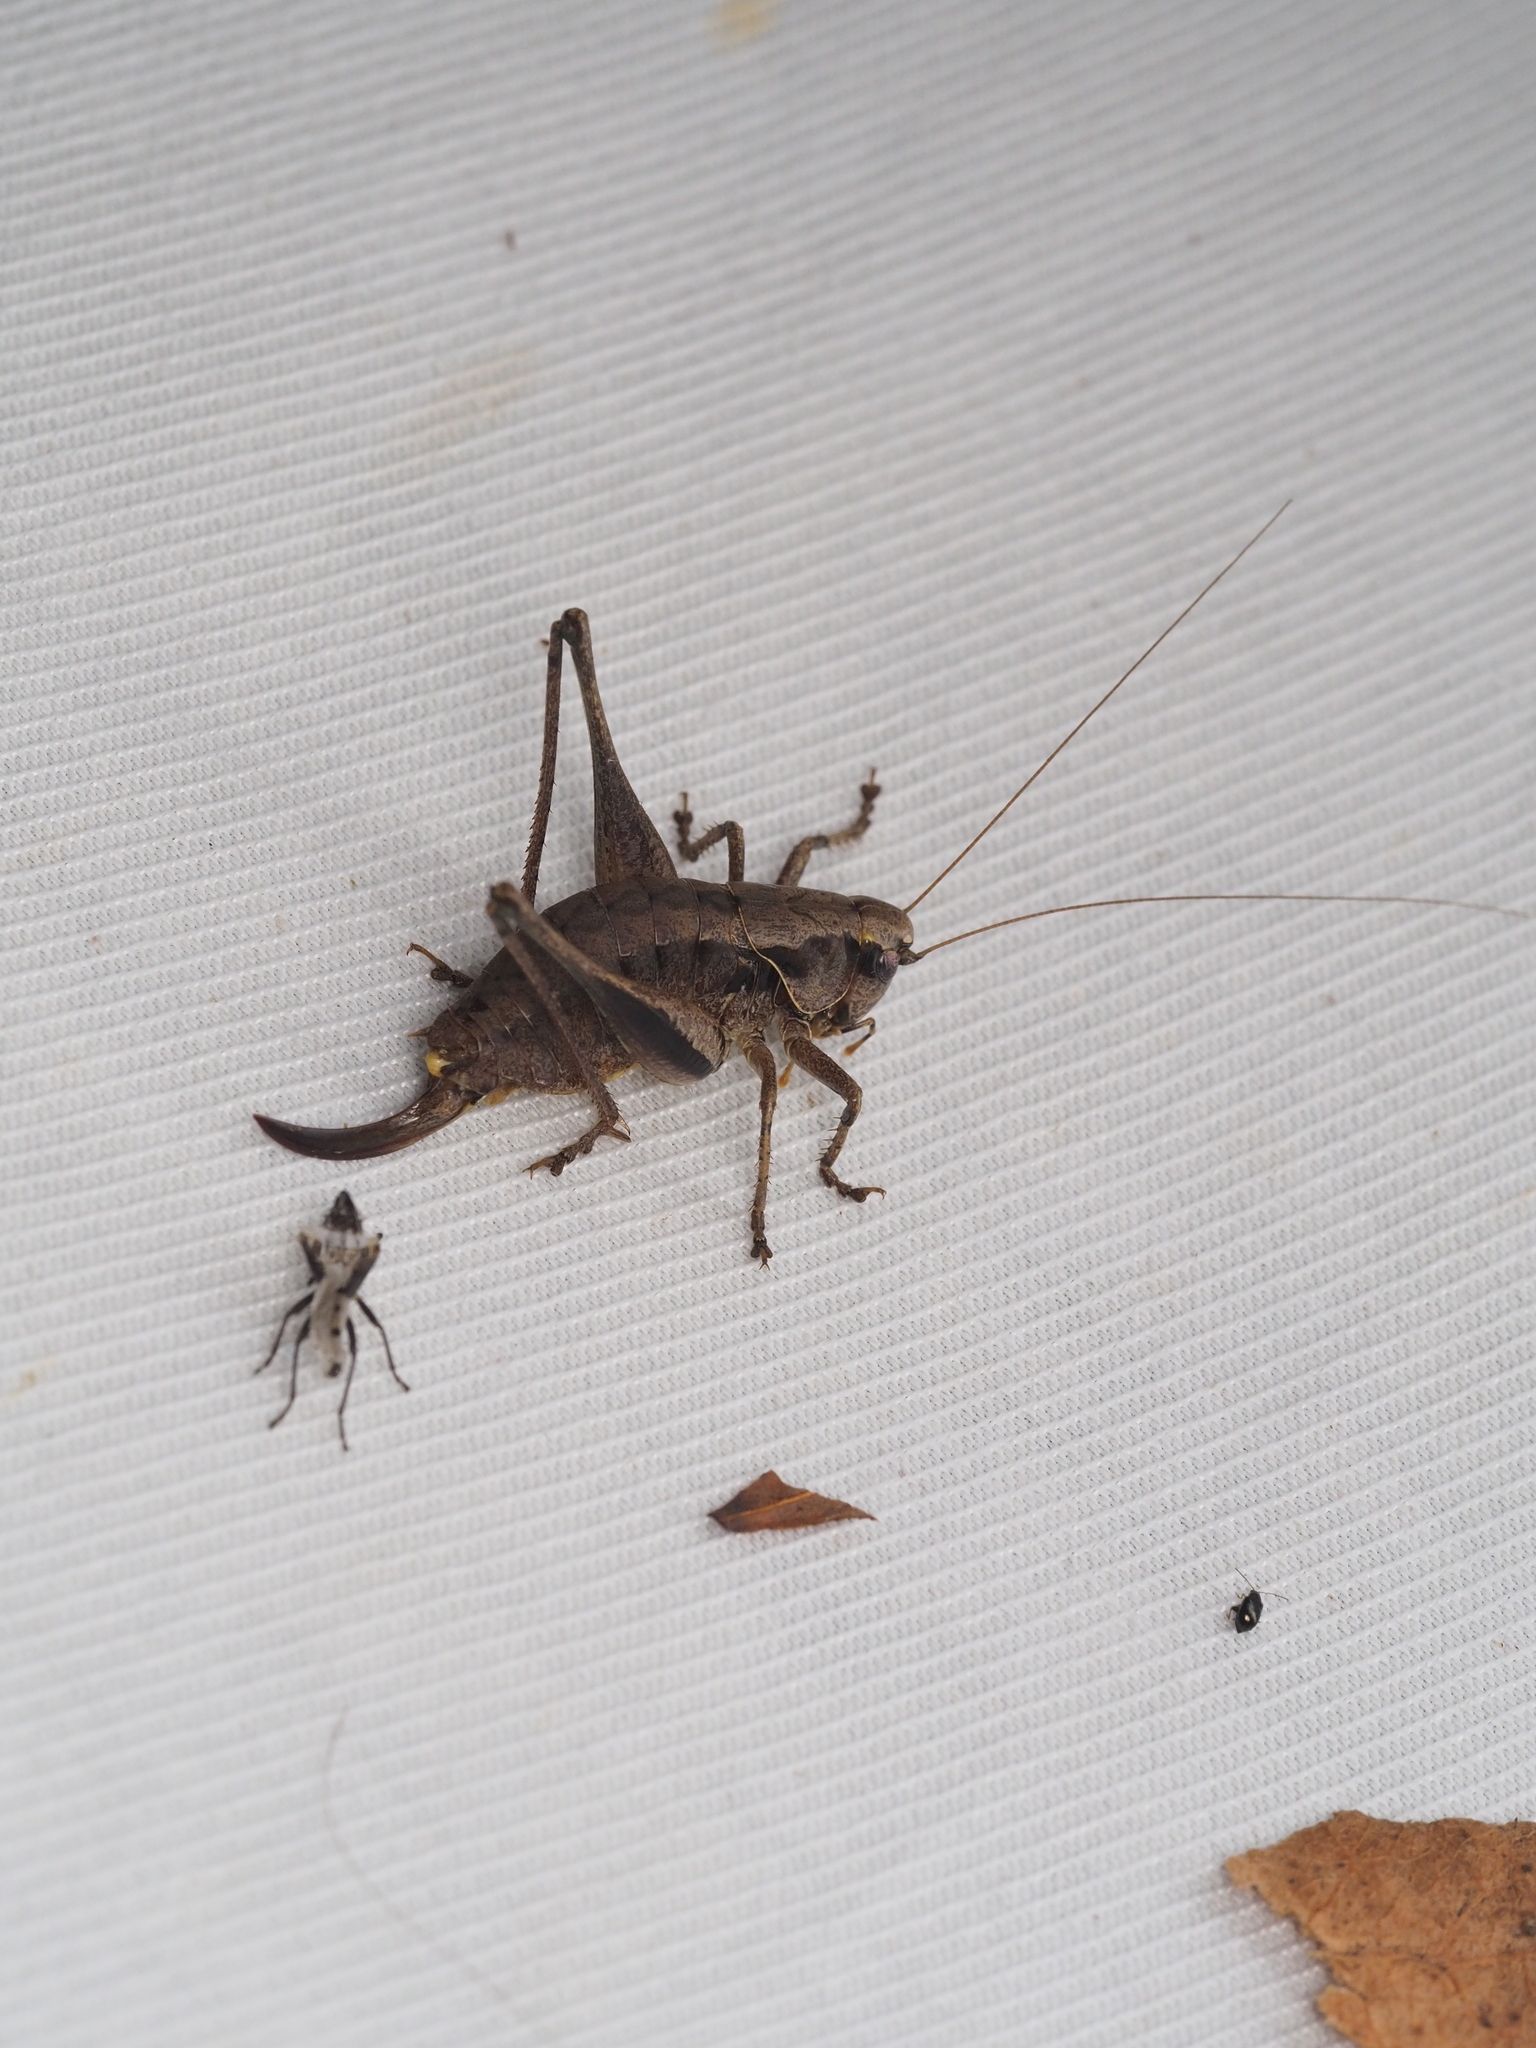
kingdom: Animalia
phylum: Arthropoda
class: Insecta
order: Orthoptera
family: Tettigoniidae
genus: Pholidoptera
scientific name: Pholidoptera griseoaptera
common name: Dark bush-cricket
